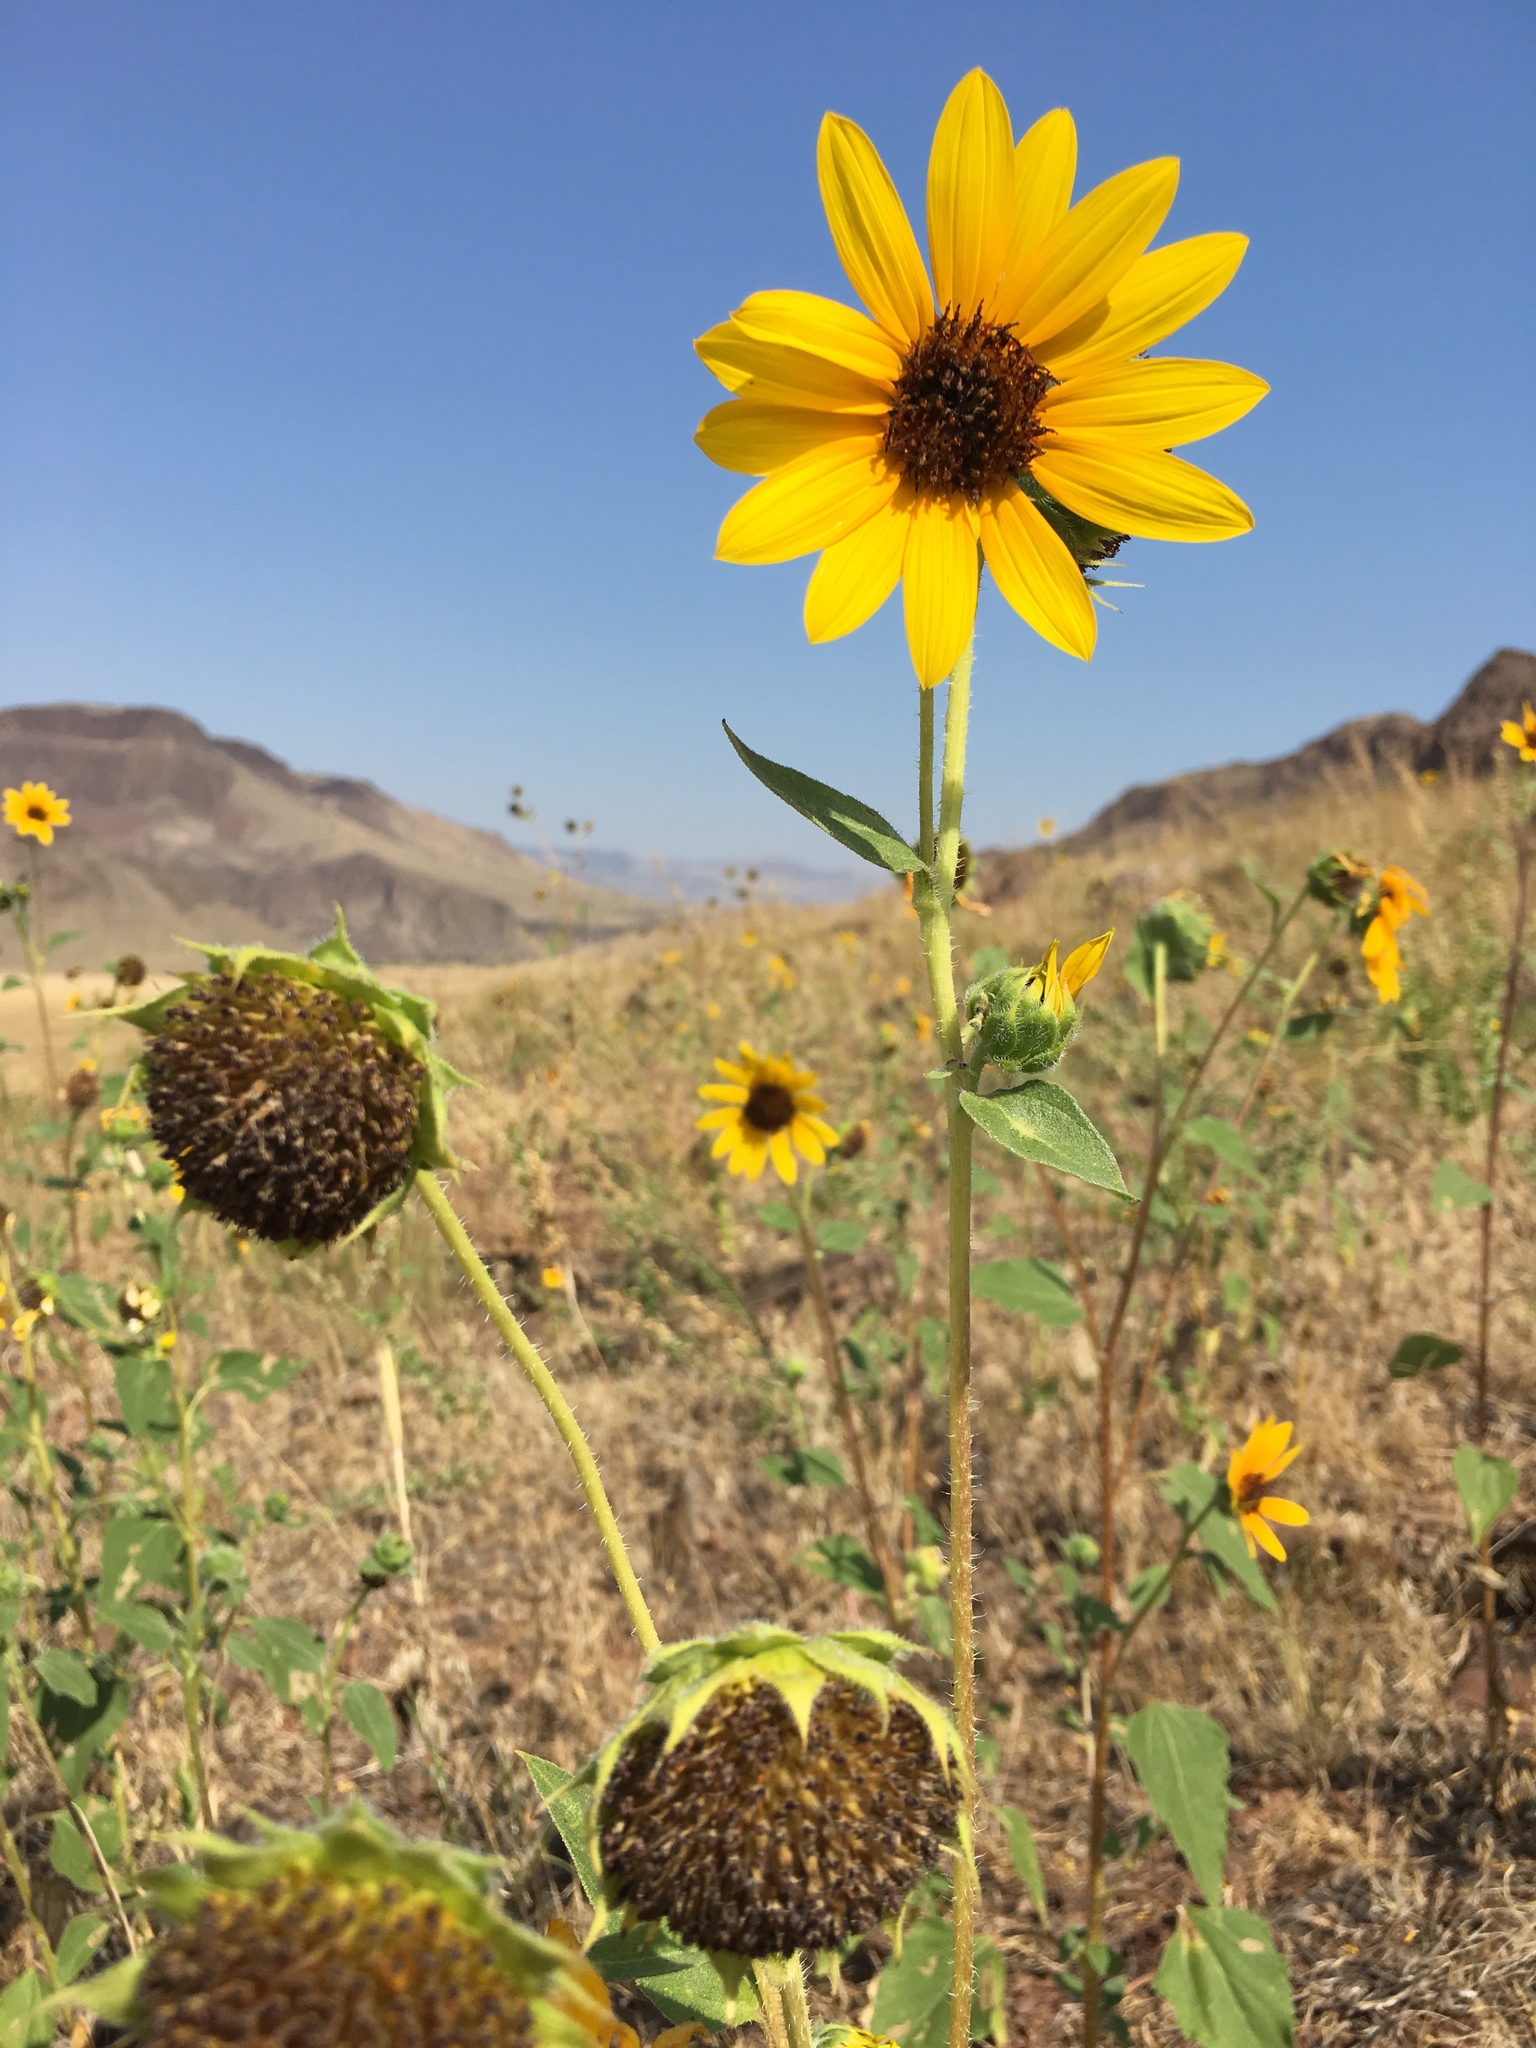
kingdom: Plantae
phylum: Tracheophyta
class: Magnoliopsida
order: Asterales
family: Asteraceae
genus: Helianthus
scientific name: Helianthus annuus
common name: Sunflower
